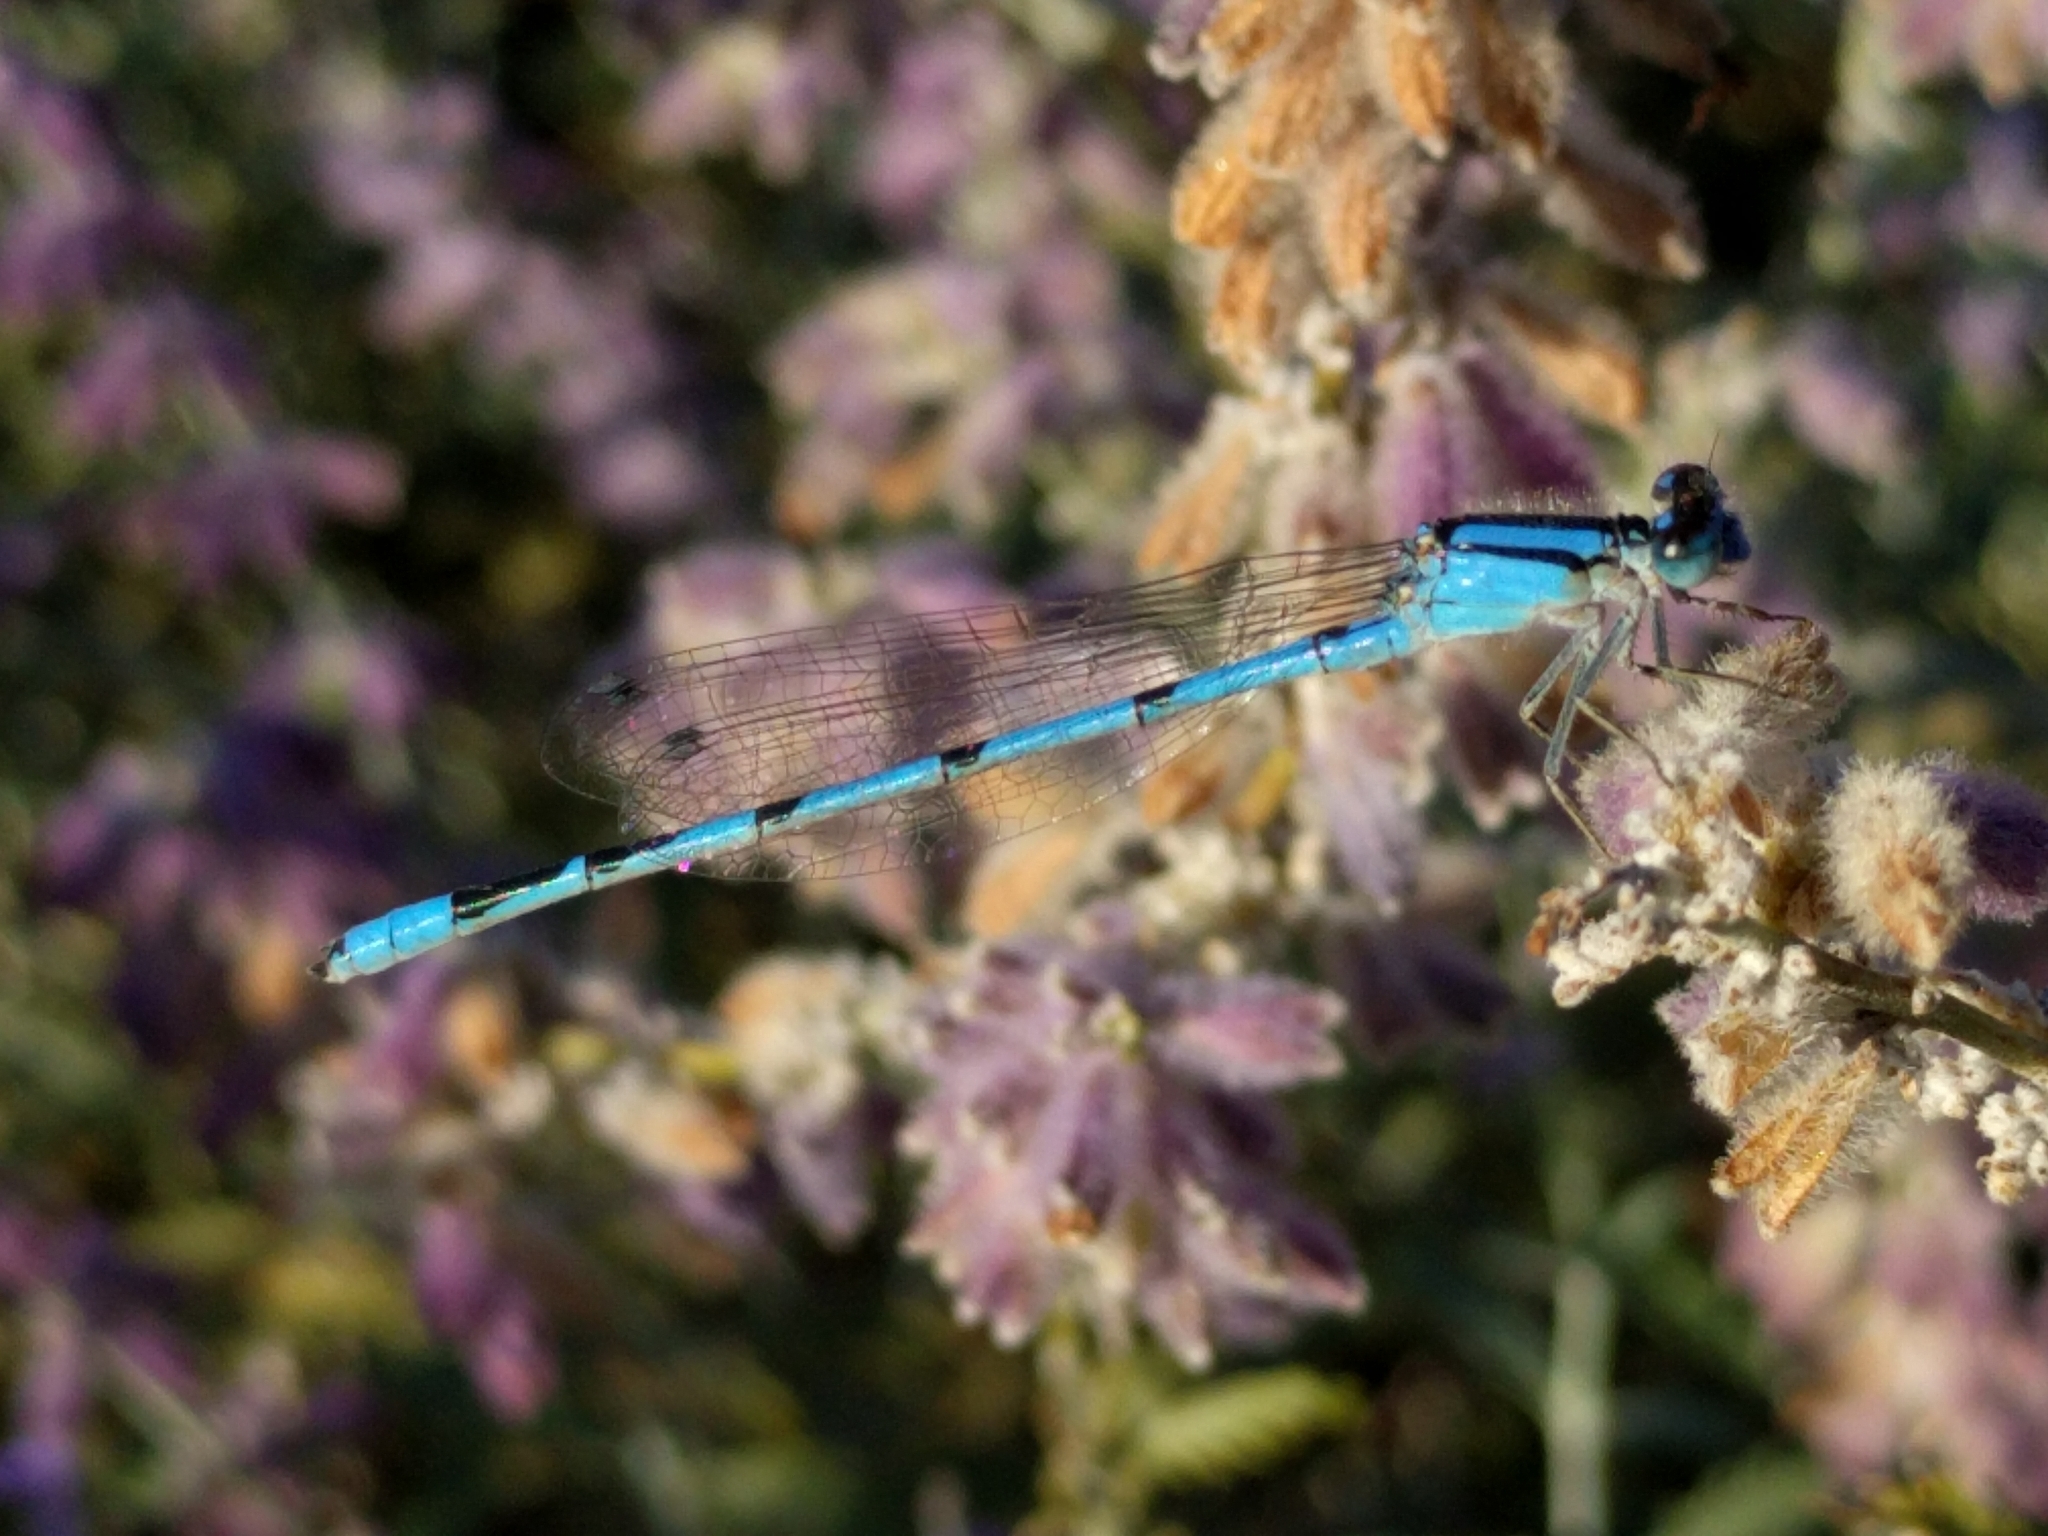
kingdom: Animalia
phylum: Arthropoda
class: Insecta
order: Odonata
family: Coenagrionidae
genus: Enallagma
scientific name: Enallagma civile
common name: Damselfly
